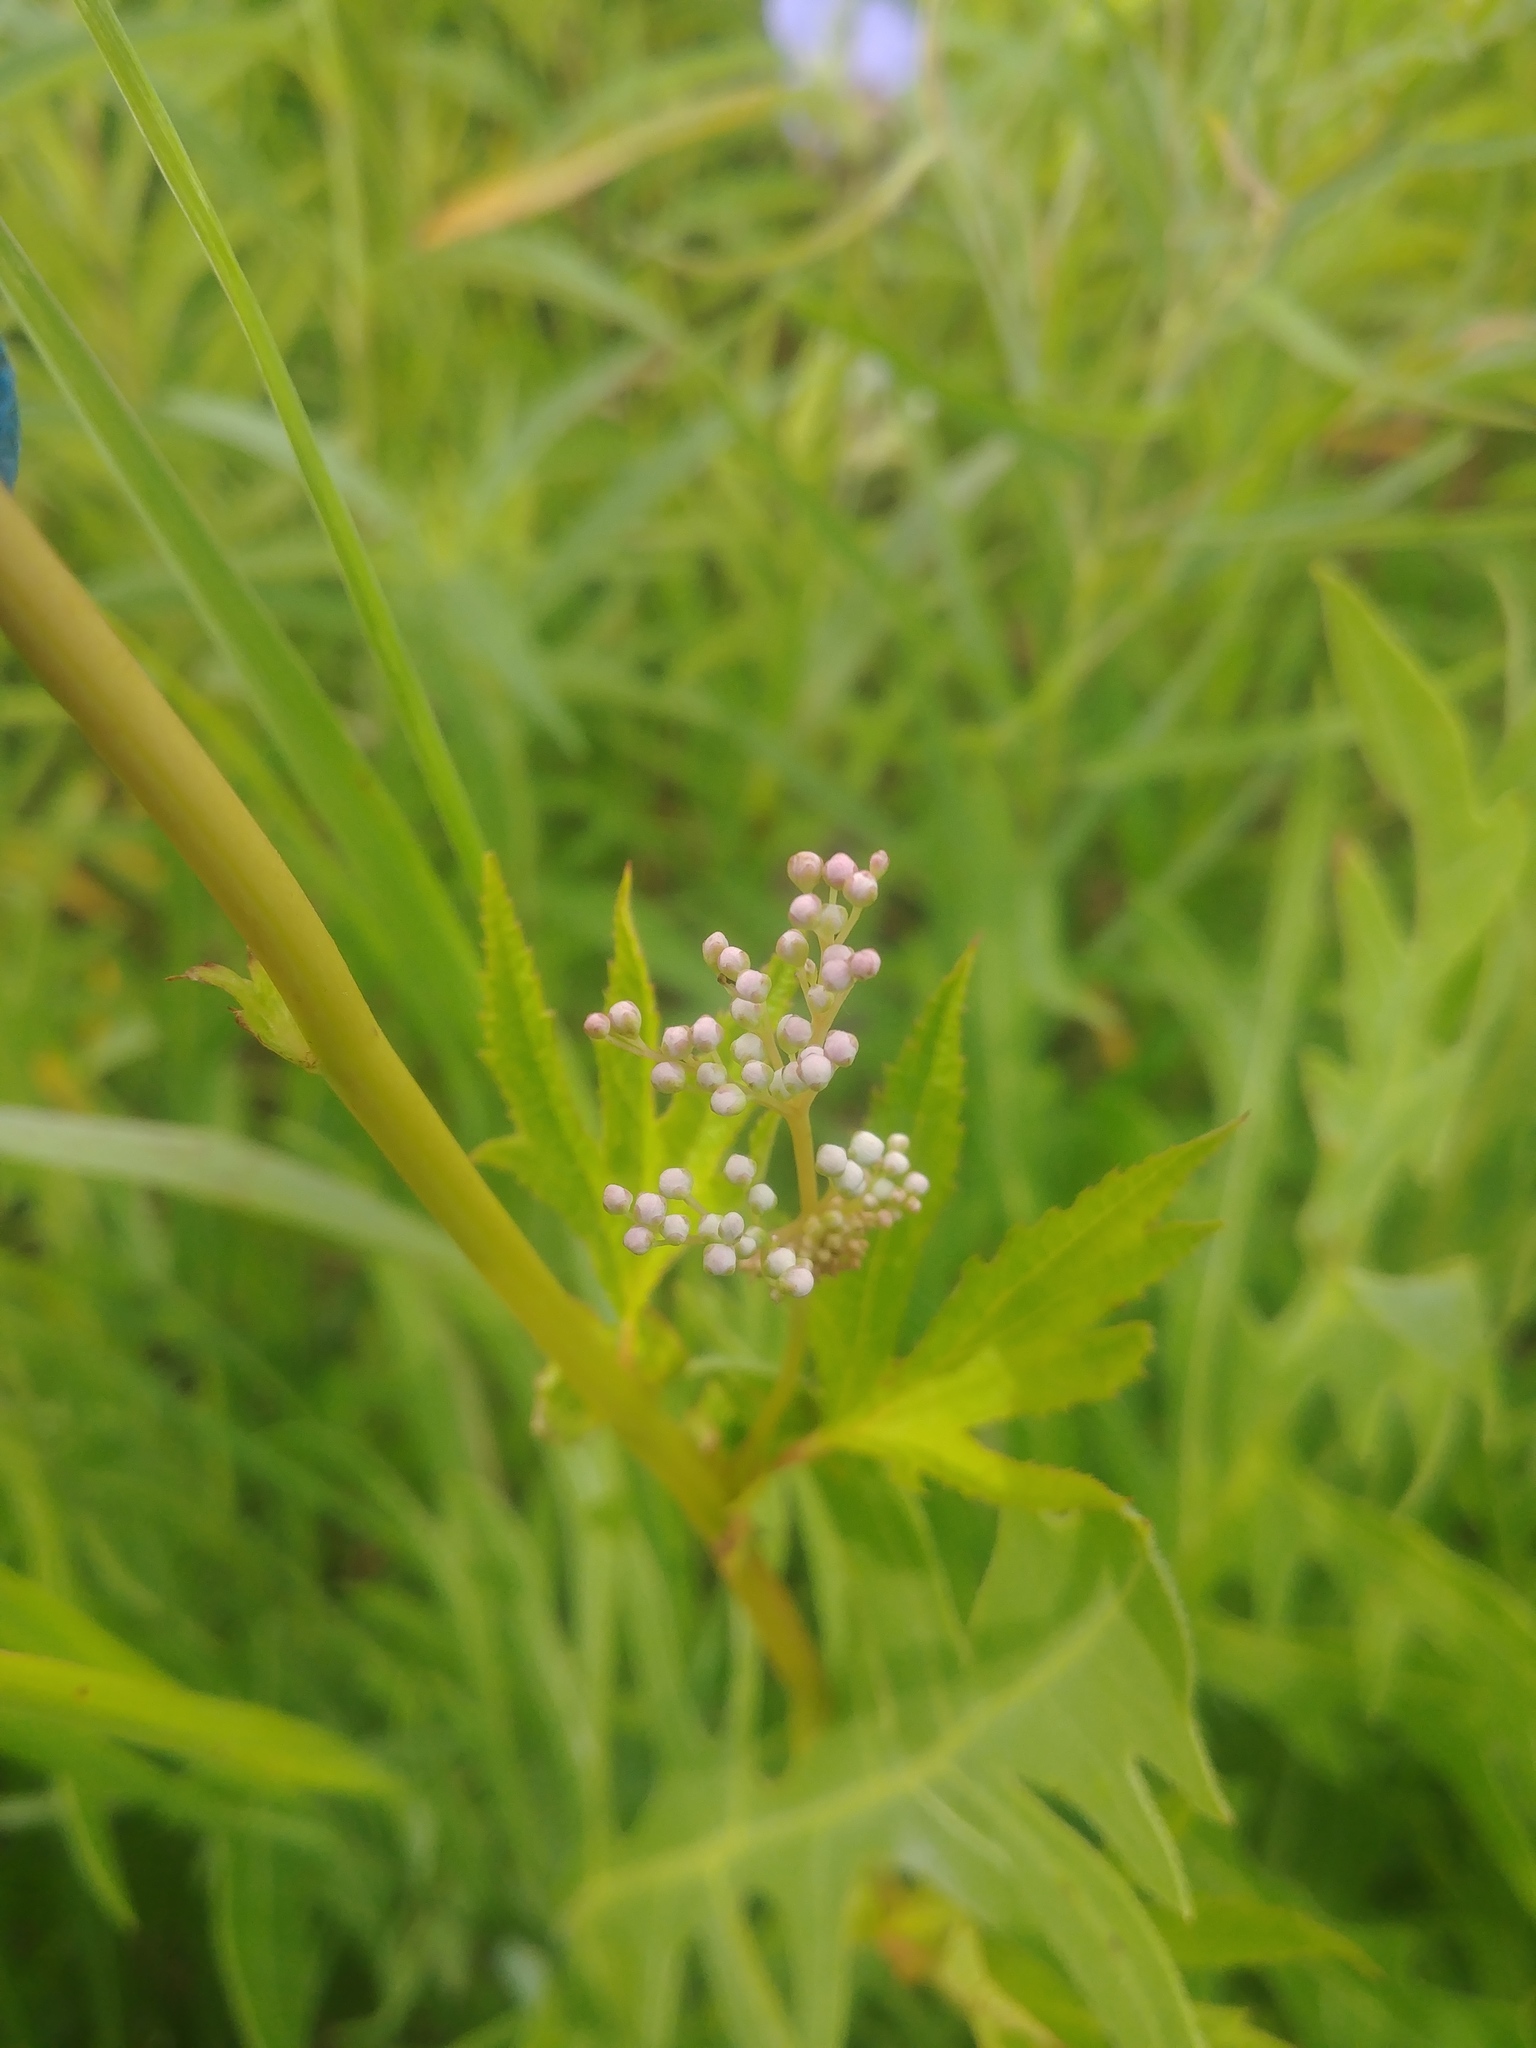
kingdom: Plantae
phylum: Tracheophyta
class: Magnoliopsida
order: Rosales
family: Rosaceae
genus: Filipendula
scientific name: Filipendula rubra
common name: Queen-of-the-prairie
